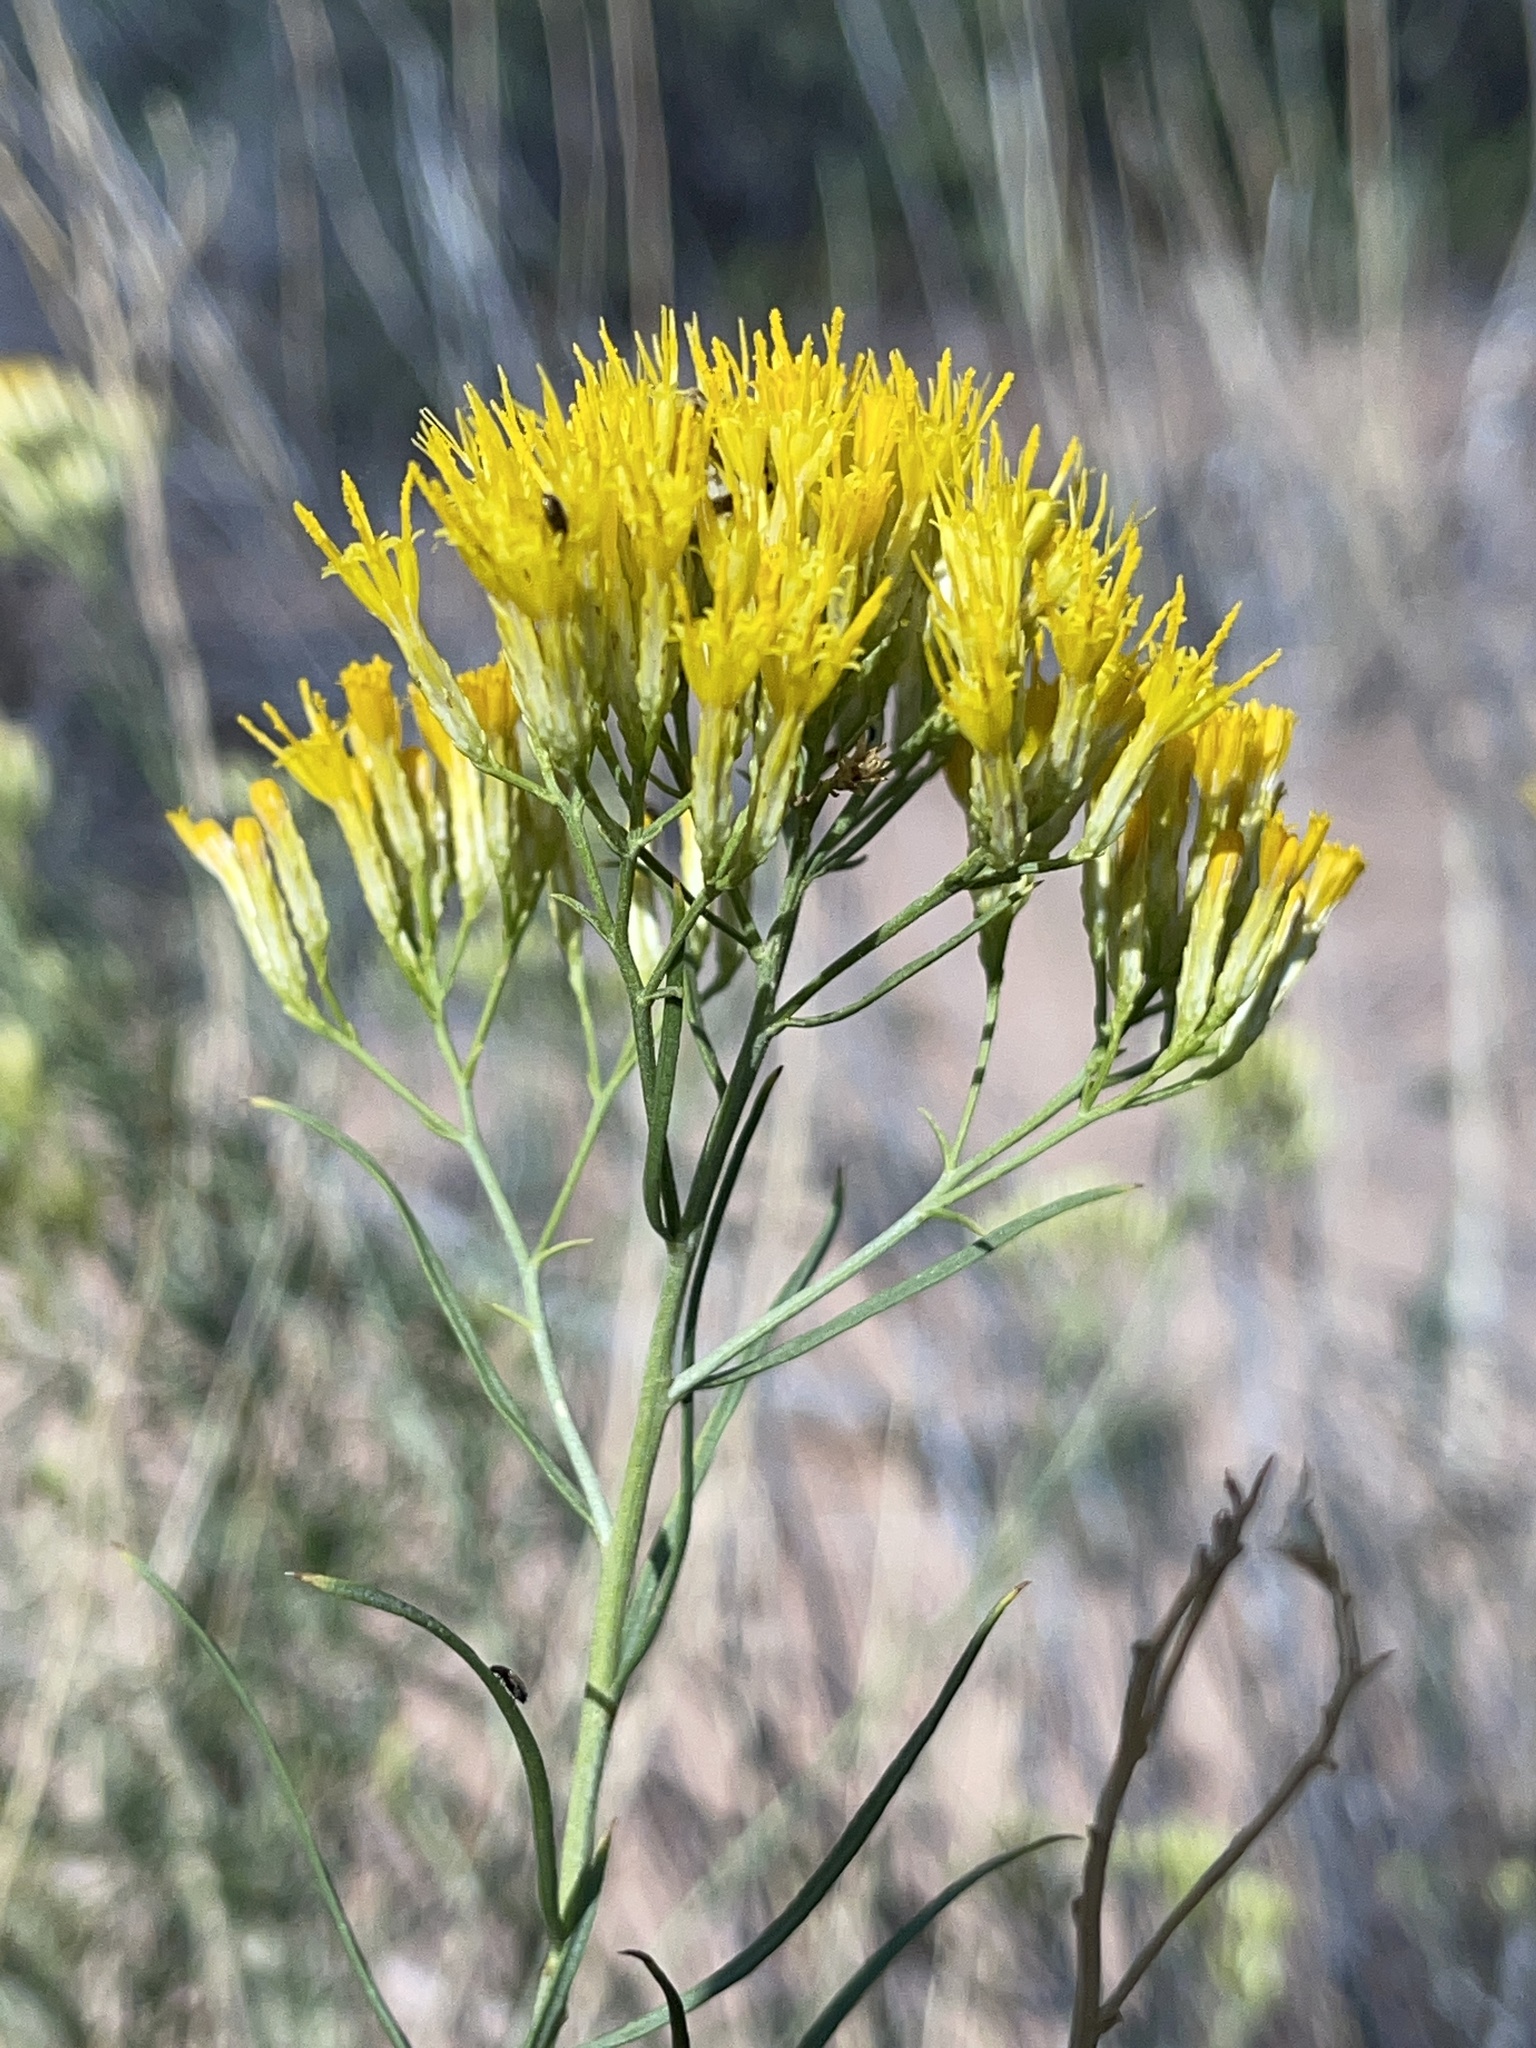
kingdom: Plantae
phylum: Tracheophyta
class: Magnoliopsida
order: Asterales
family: Asteraceae
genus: Ericameria
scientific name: Ericameria nauseosa
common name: Rubber rabbitbrush
